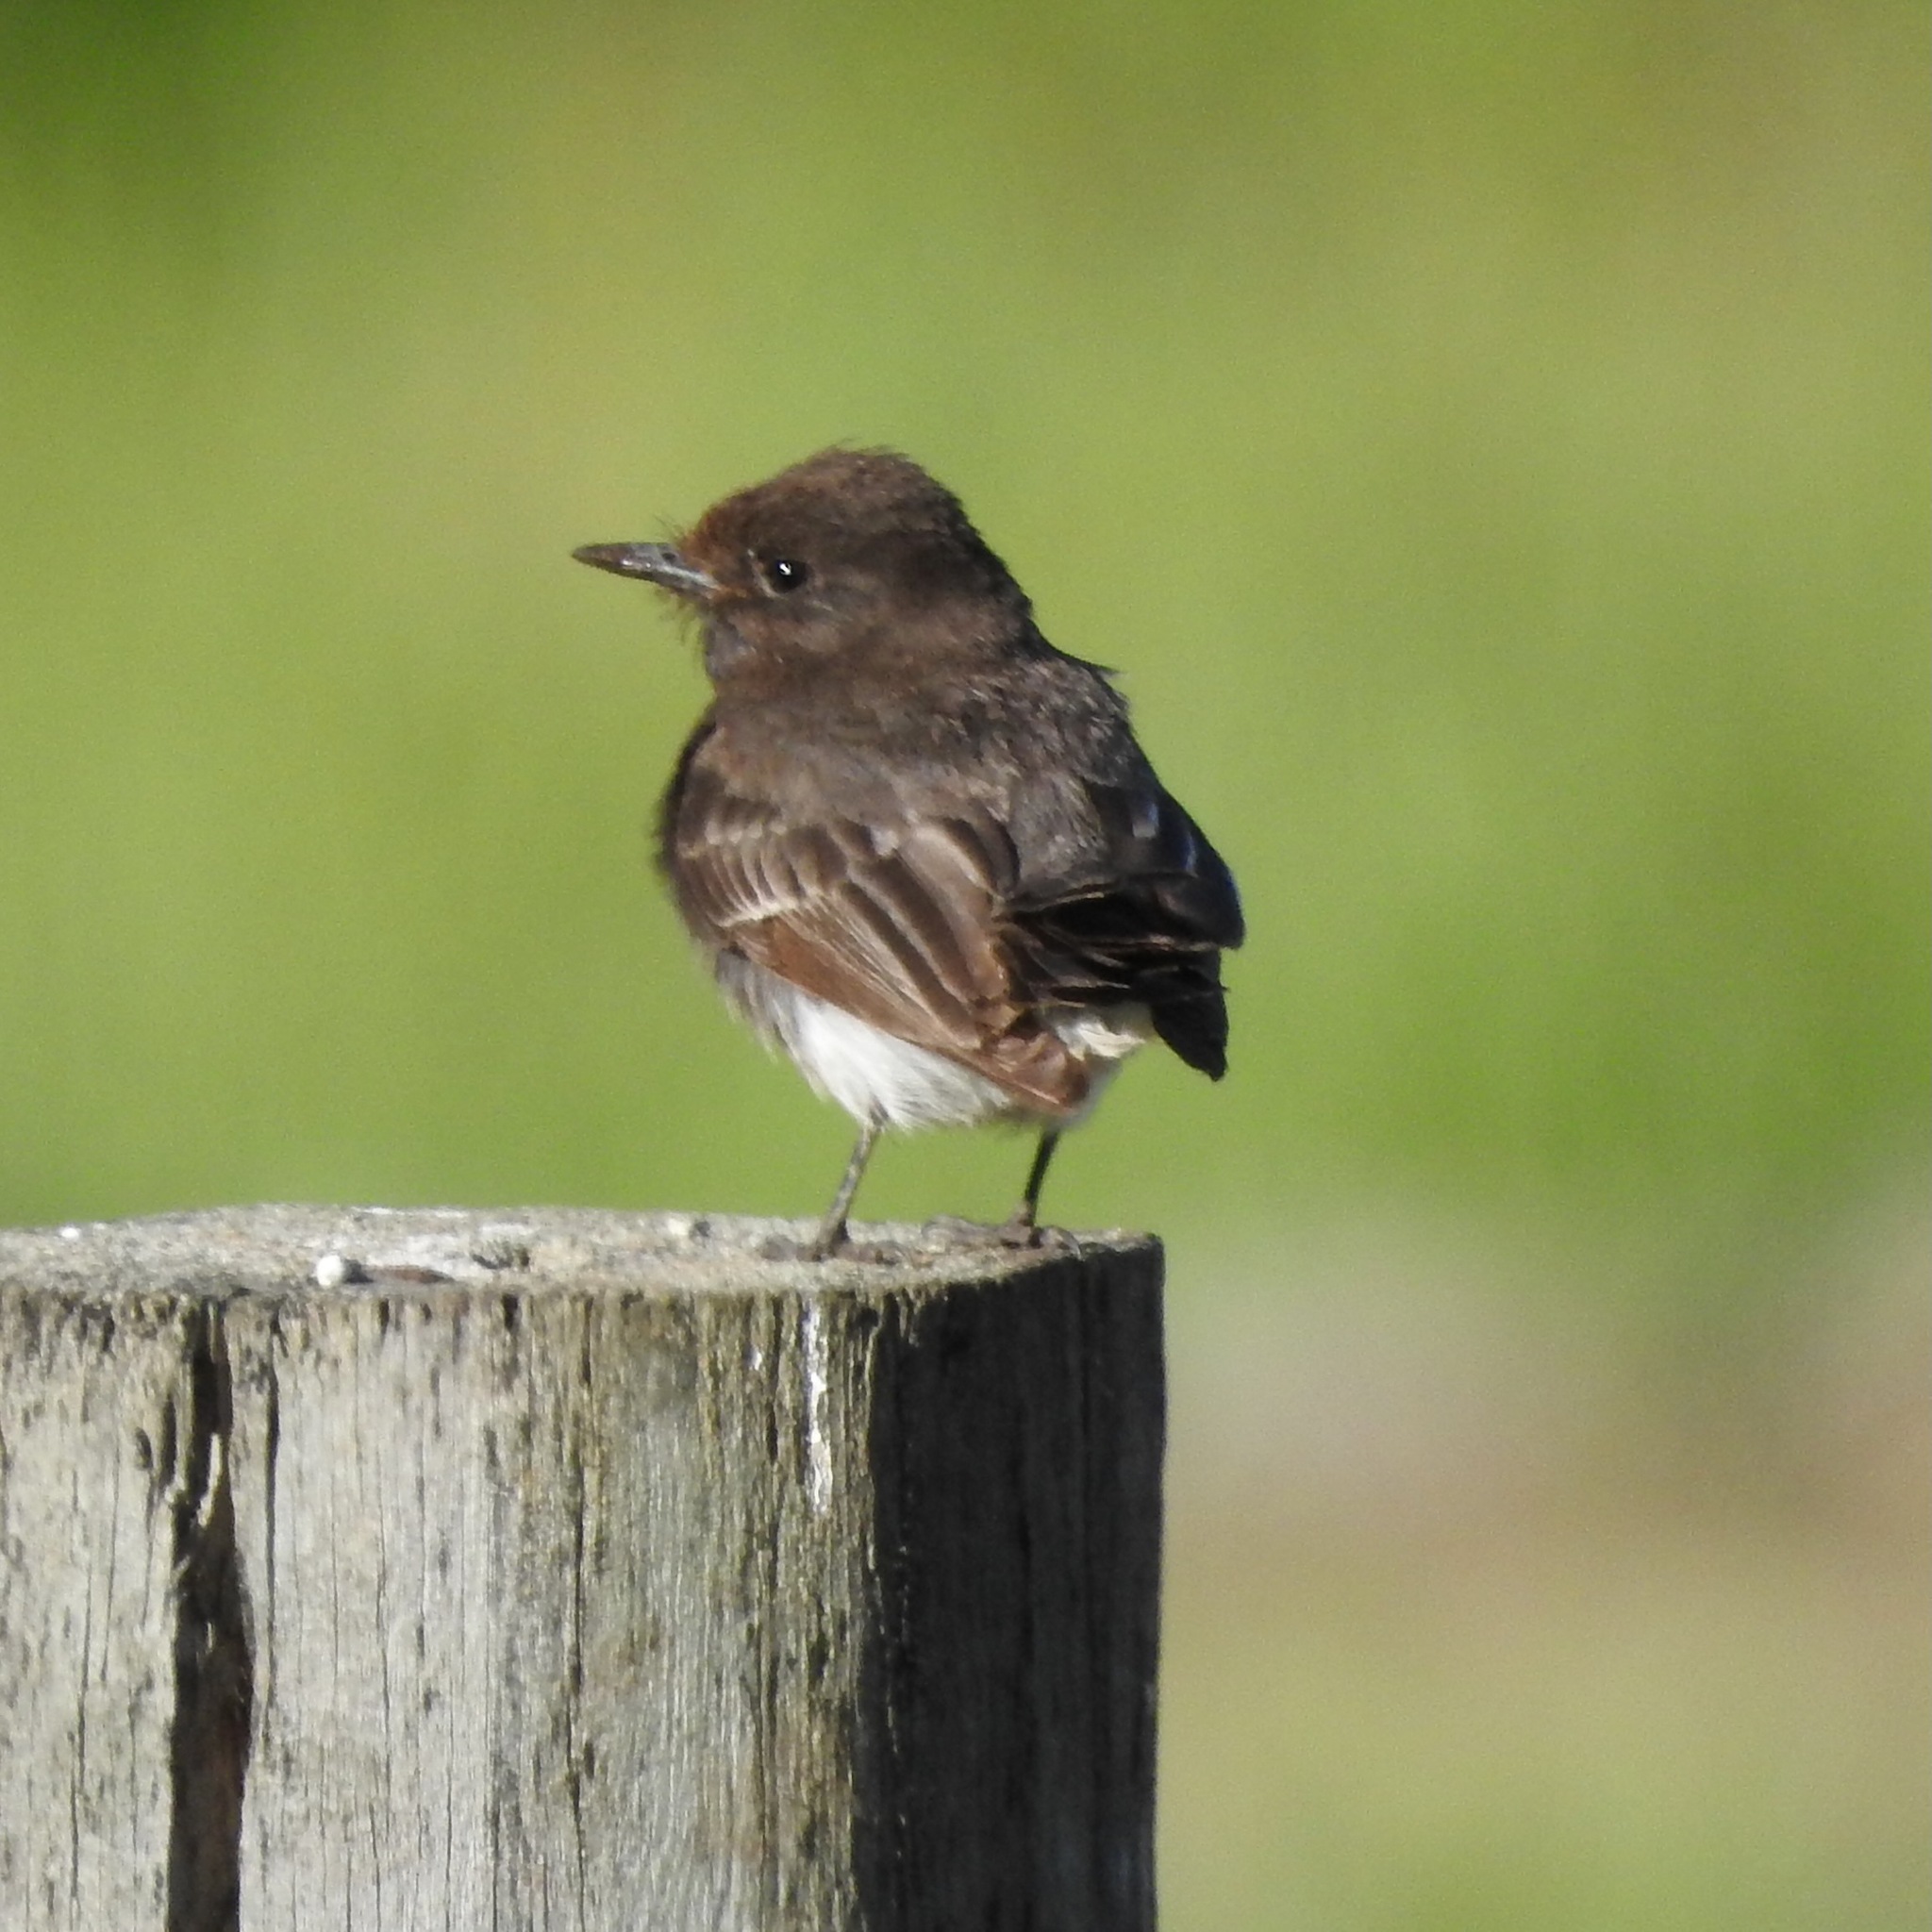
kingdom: Animalia
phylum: Chordata
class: Aves
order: Passeriformes
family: Tyrannidae
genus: Sayornis
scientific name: Sayornis nigricans
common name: Black phoebe
